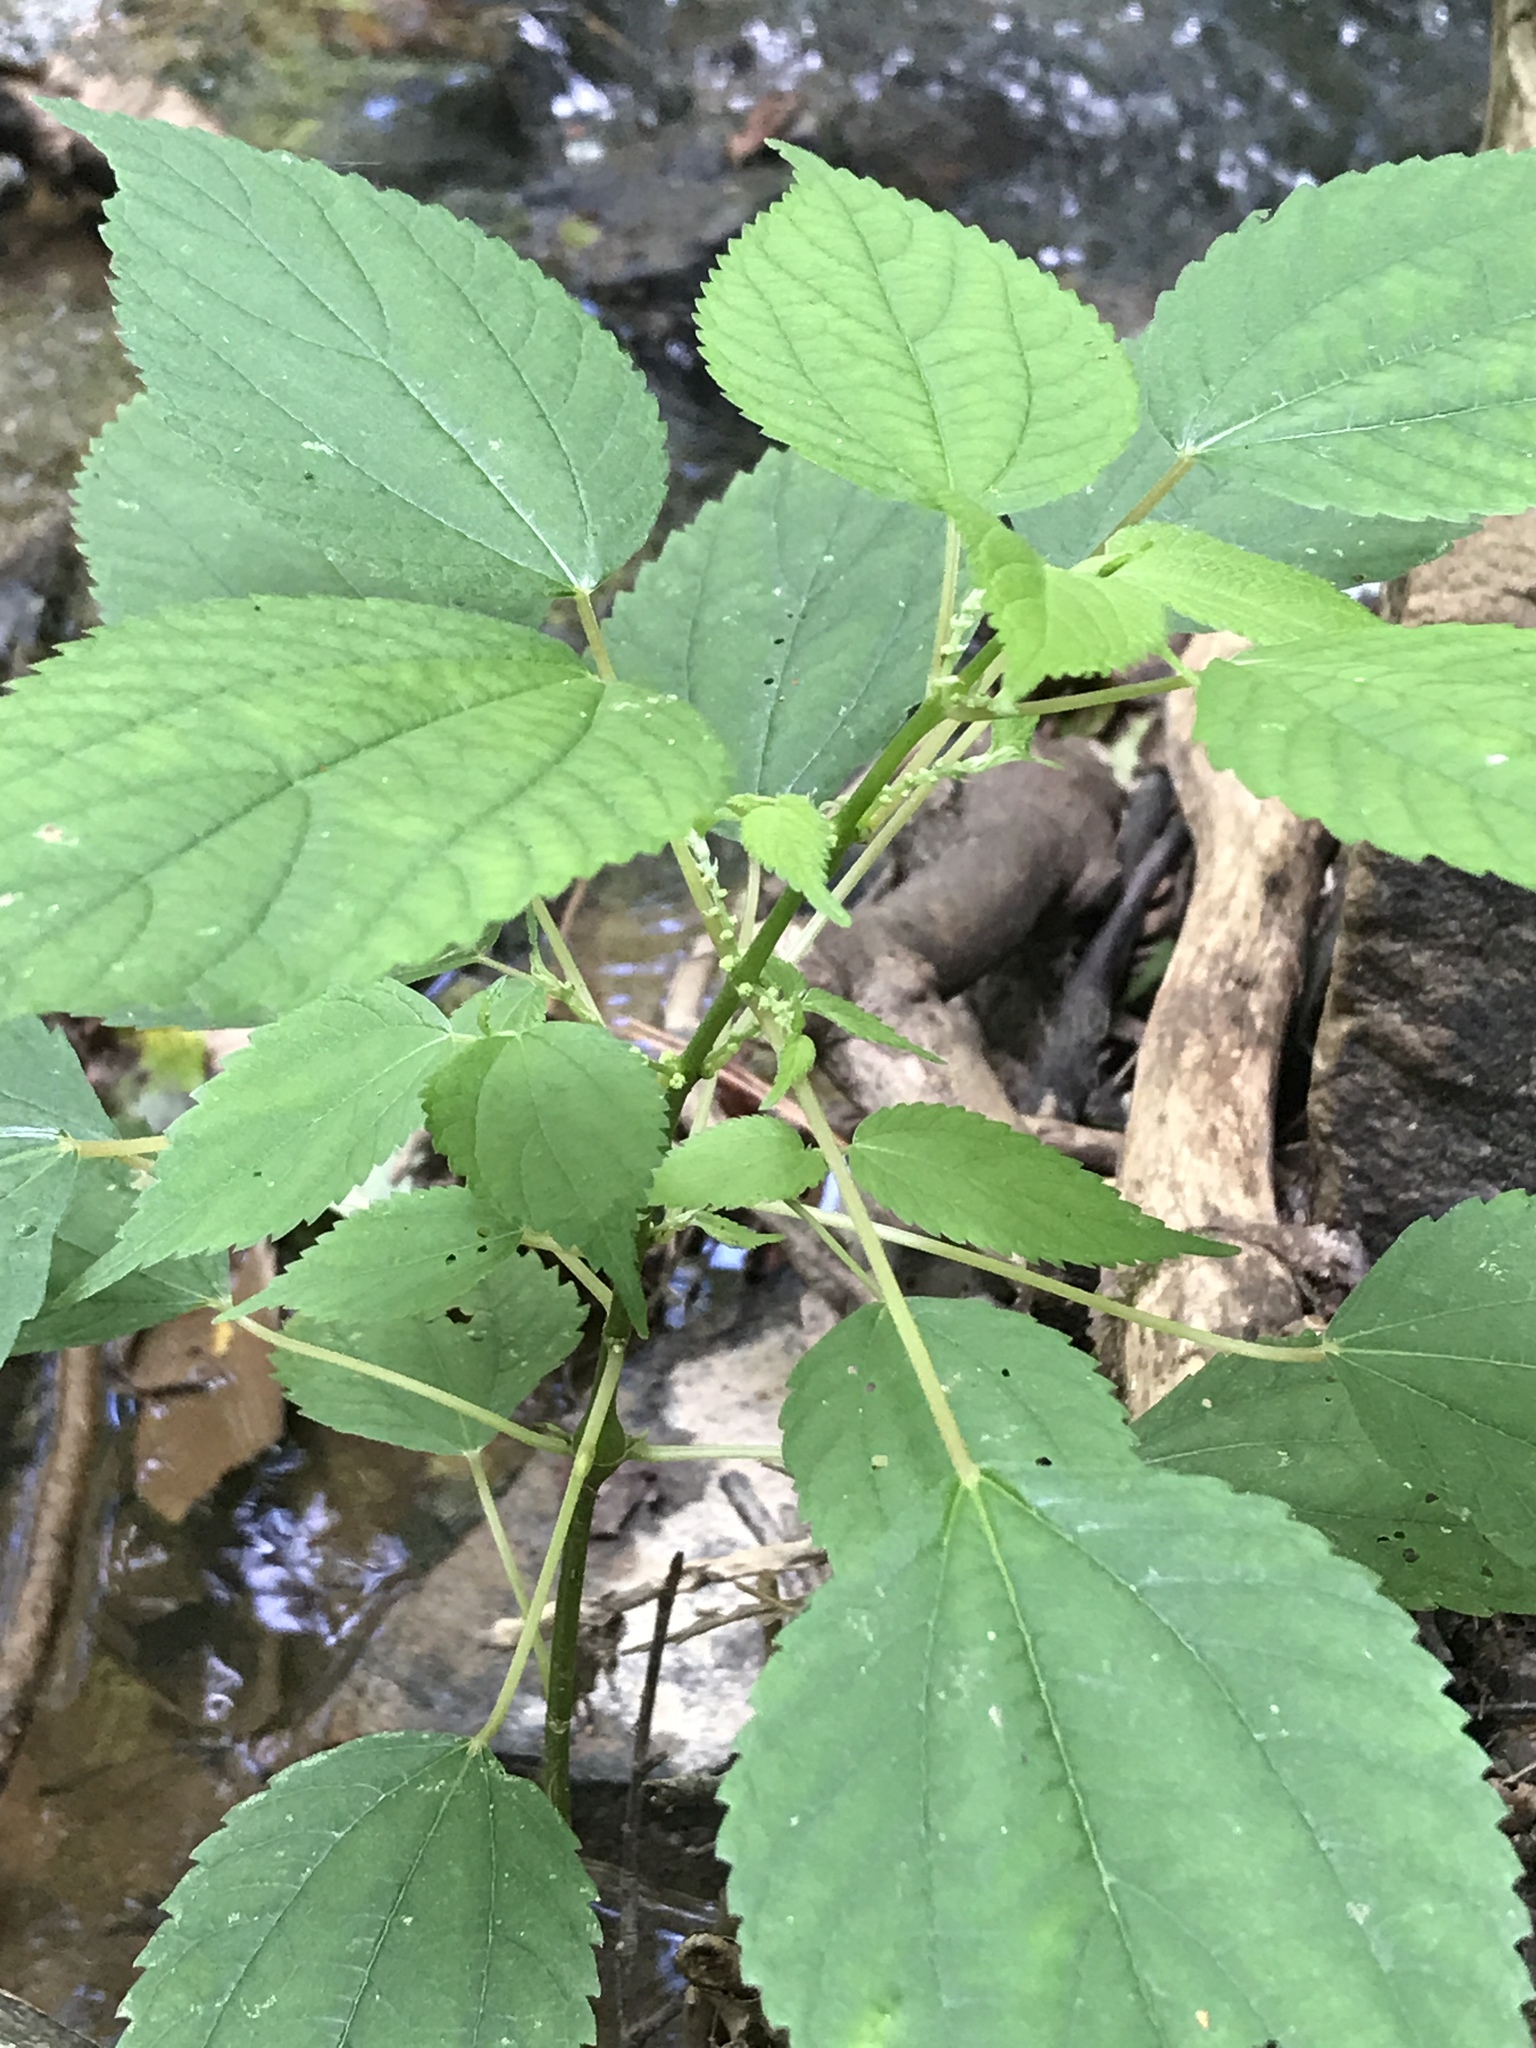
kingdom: Plantae
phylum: Tracheophyta
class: Magnoliopsida
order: Rosales
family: Urticaceae
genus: Boehmeria
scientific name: Boehmeria cylindrica
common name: Bog-hemp
